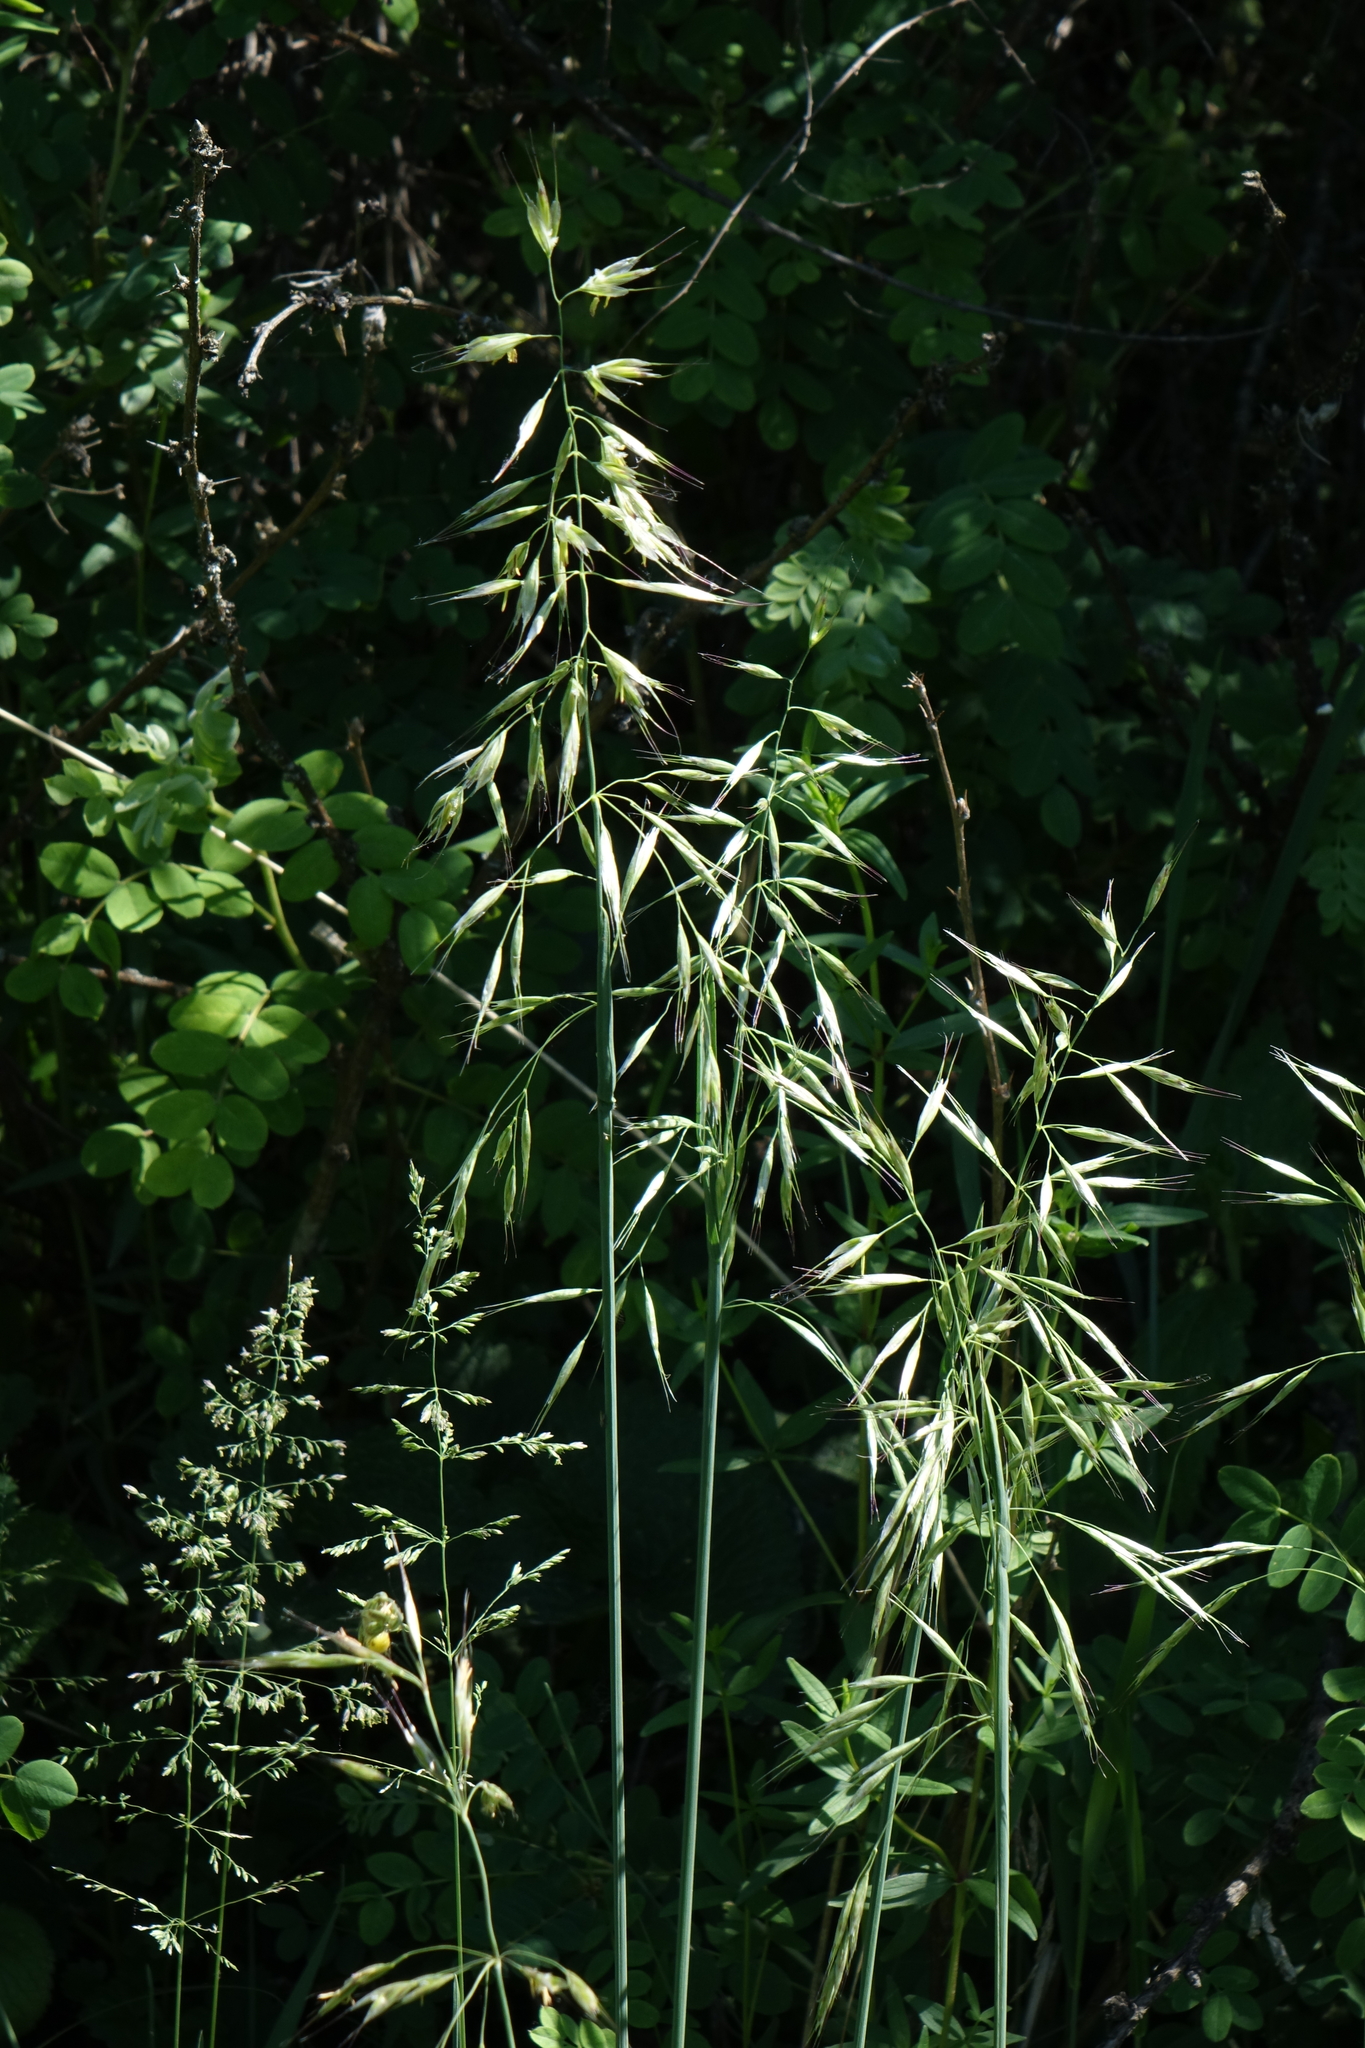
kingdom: Plantae
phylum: Tracheophyta
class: Liliopsida
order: Poales
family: Poaceae
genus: Avenula
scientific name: Avenula pubescens
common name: Downy alpine oatgrass
